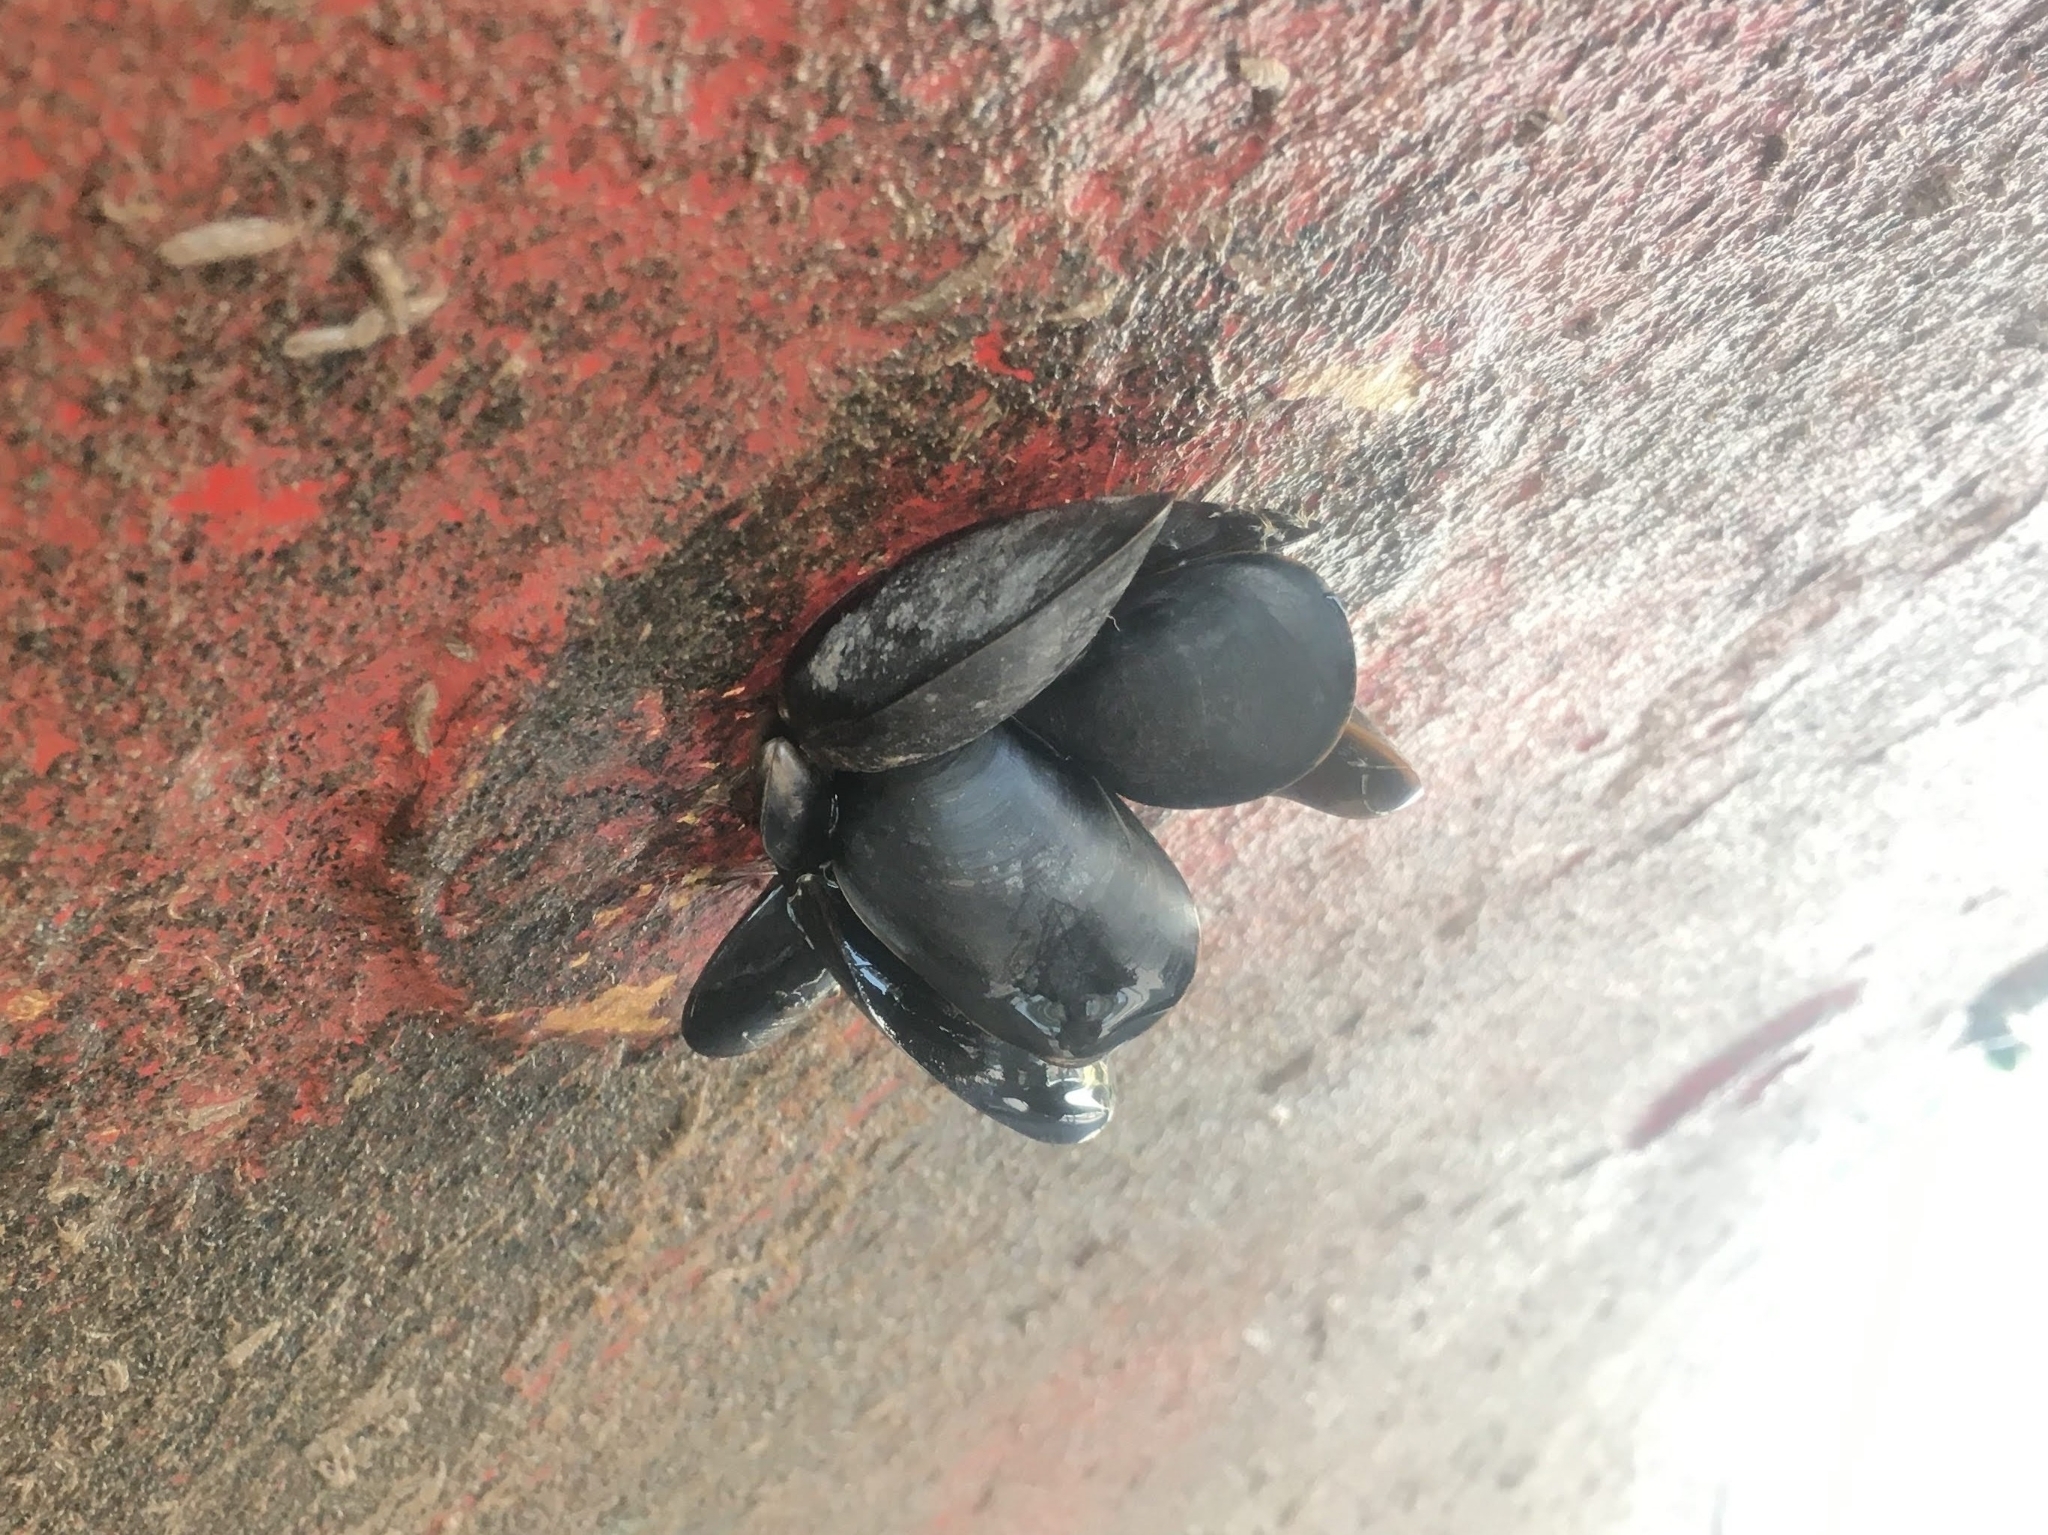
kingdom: Animalia
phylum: Mollusca
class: Bivalvia
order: Mytilida
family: Mytilidae
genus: Mytilus
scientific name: Mytilus edulis
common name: Blue mussel
